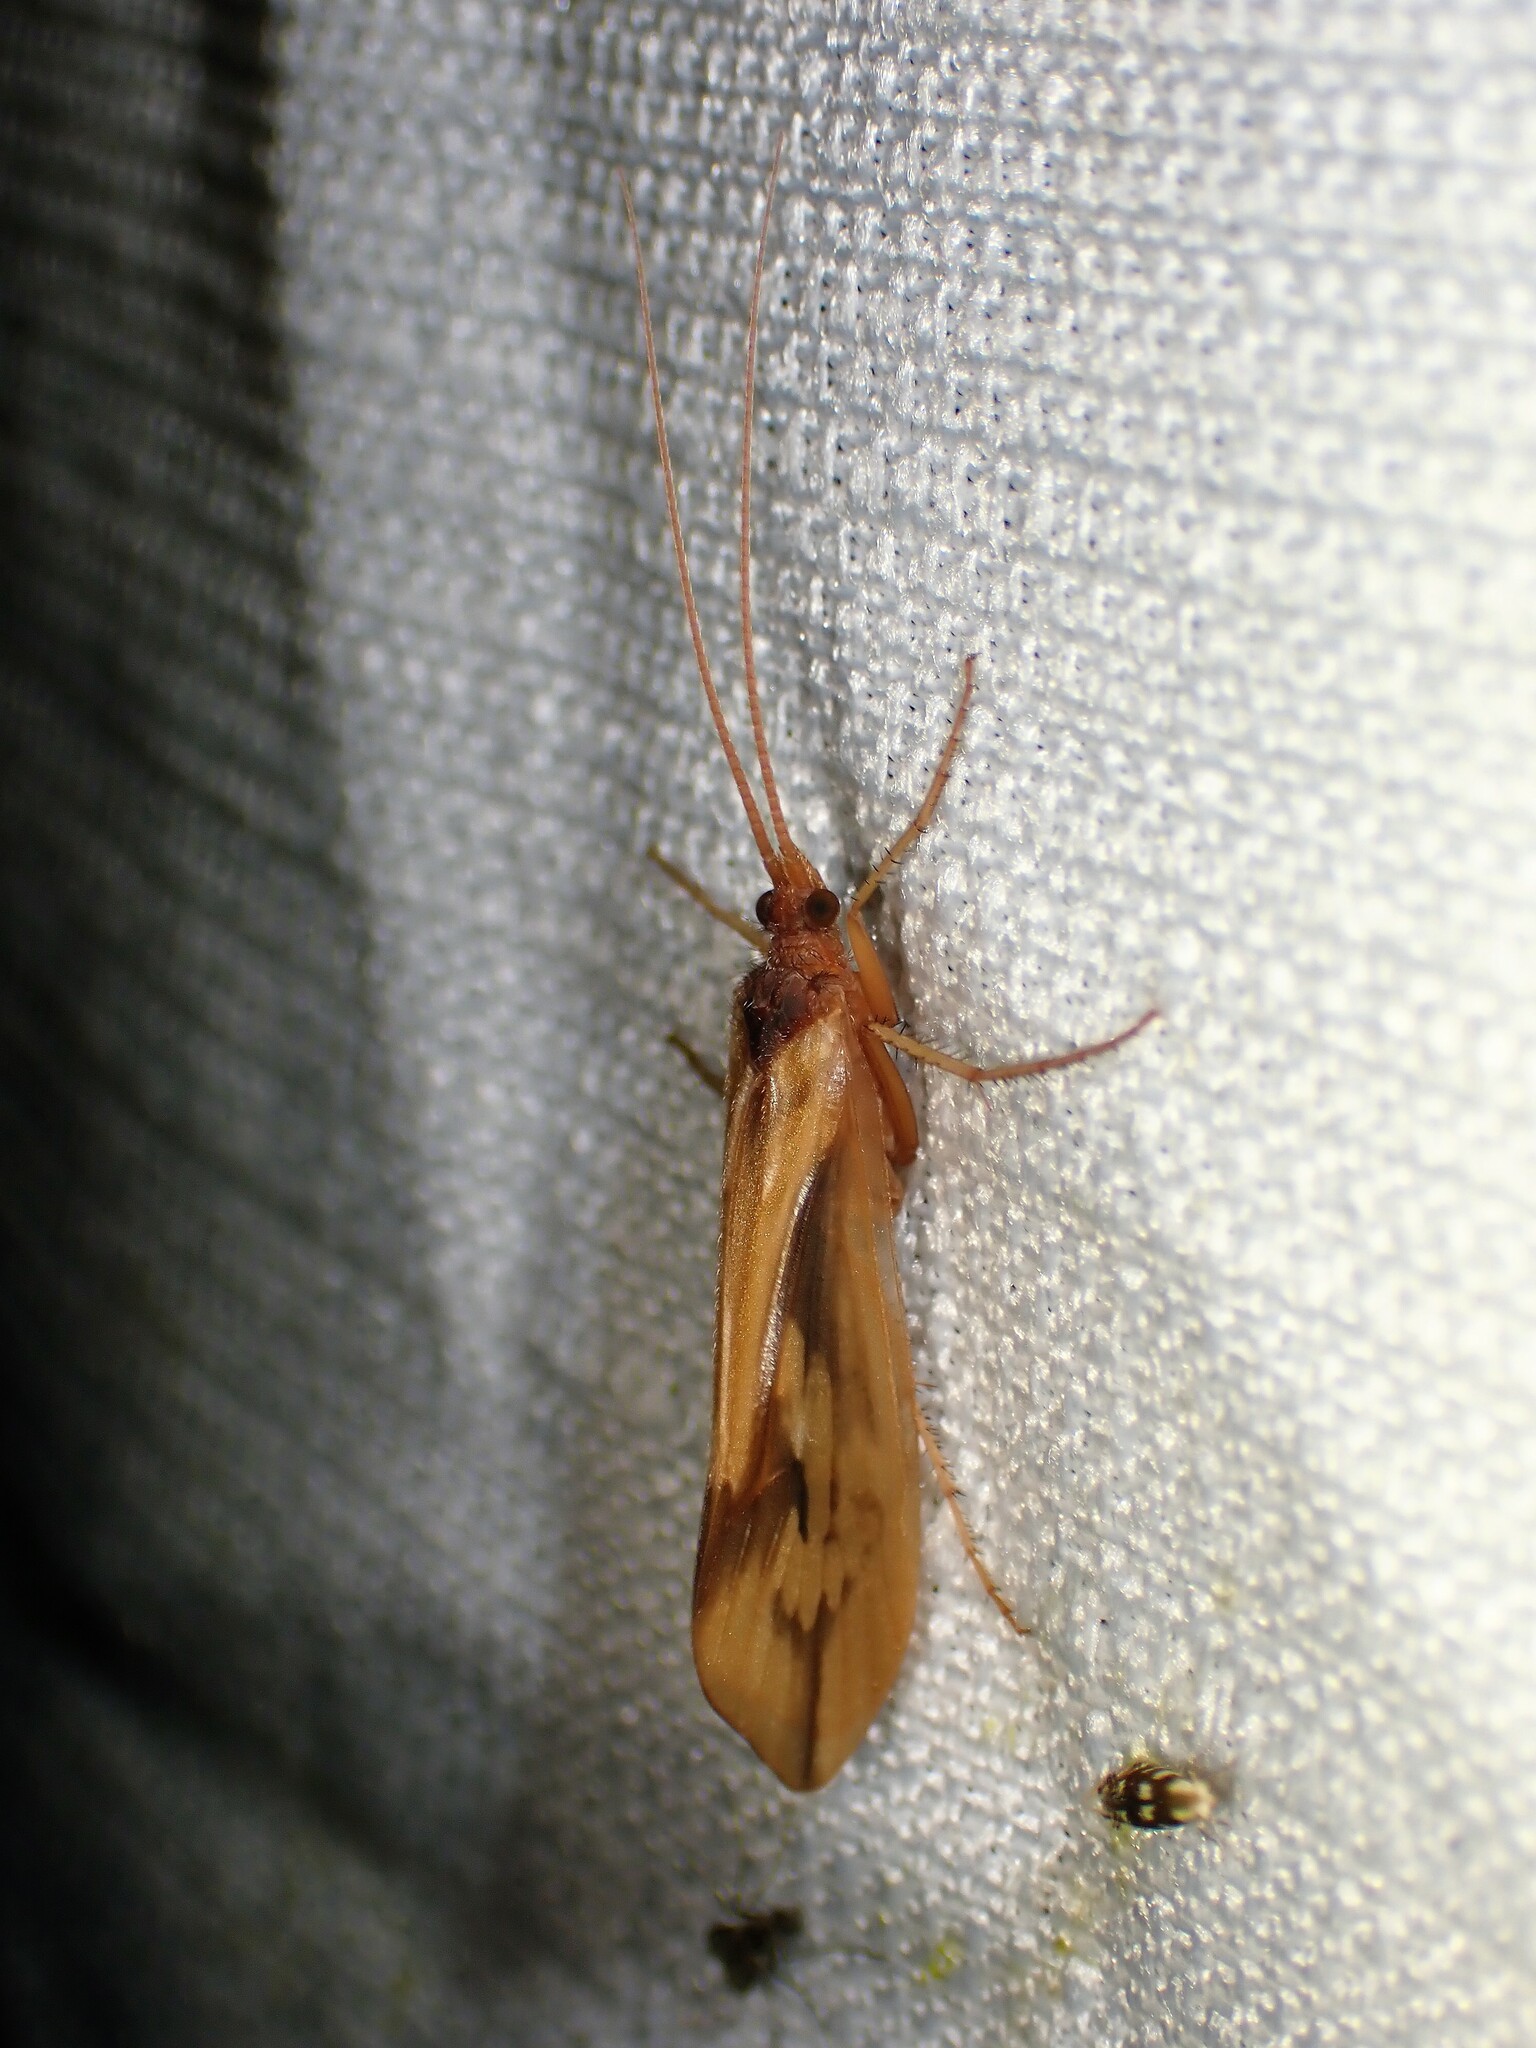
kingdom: Animalia
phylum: Arthropoda
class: Insecta
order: Trichoptera
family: Limnephilidae
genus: Platycentropus
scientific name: Platycentropus radiatus
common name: Chocolate-and-cream sedge
